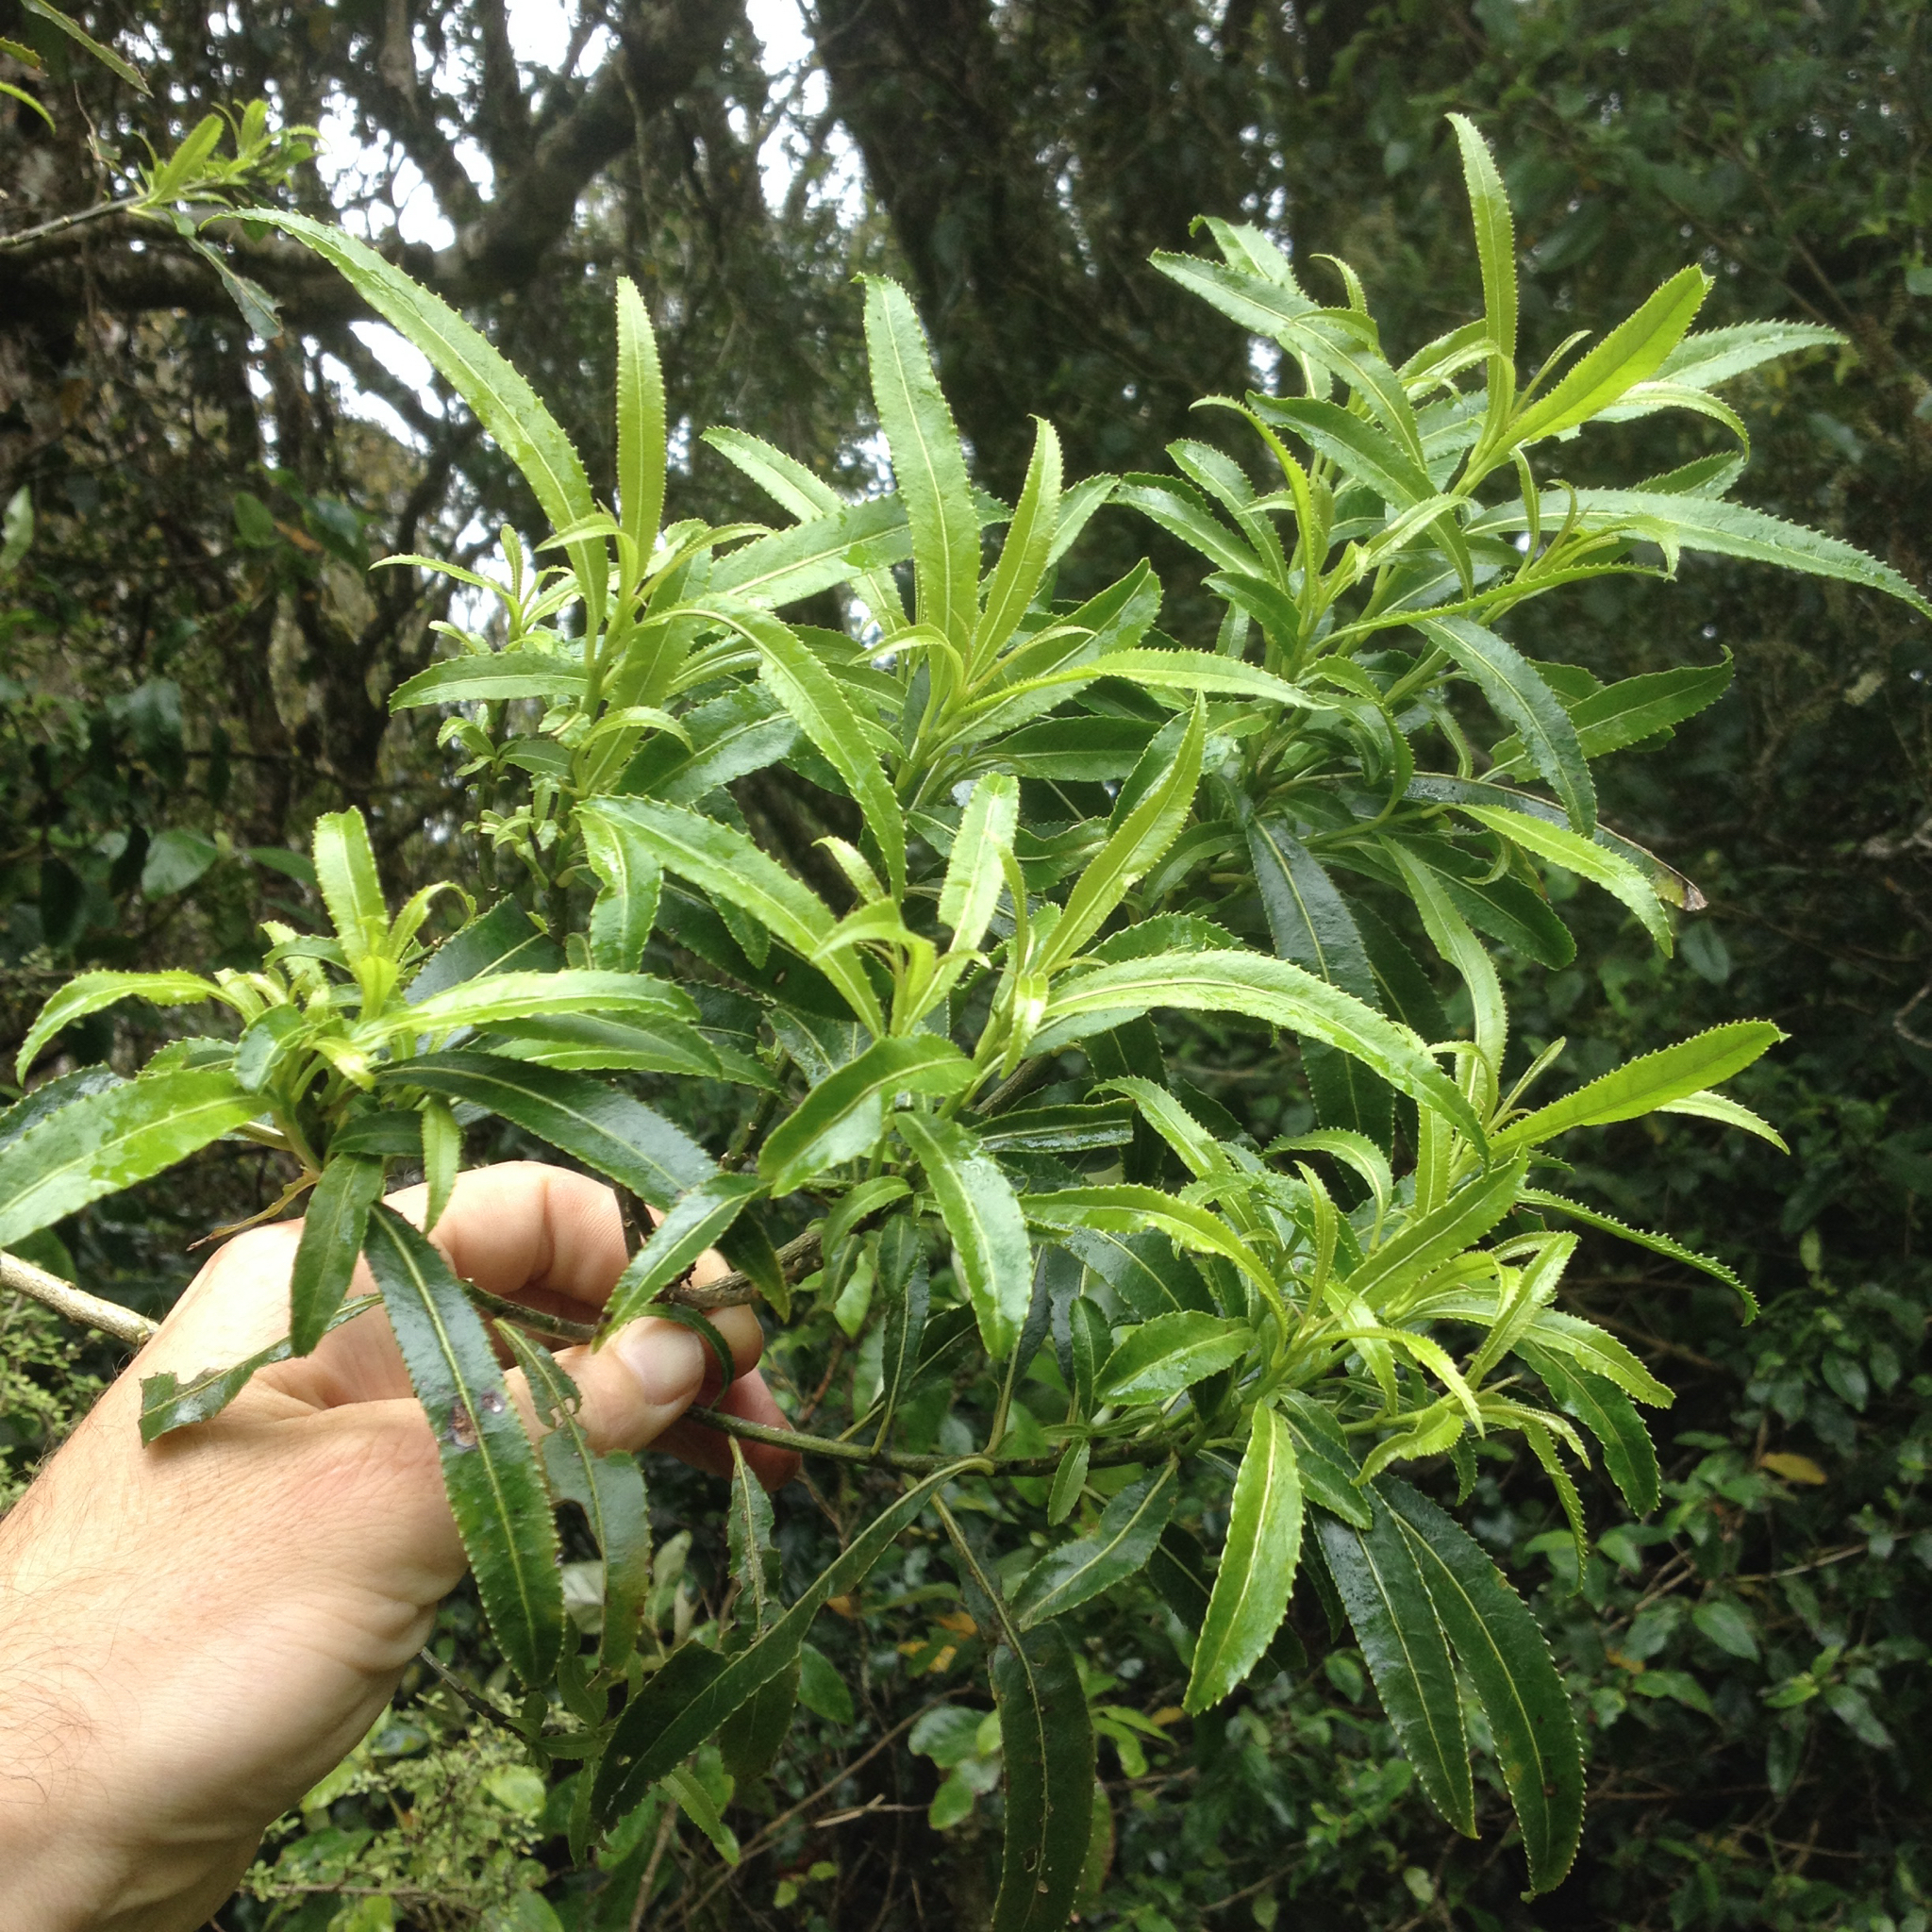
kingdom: Plantae
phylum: Tracheophyta
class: Magnoliopsida
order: Malpighiales
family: Violaceae
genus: Melicytus
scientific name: Melicytus lanceolatus
